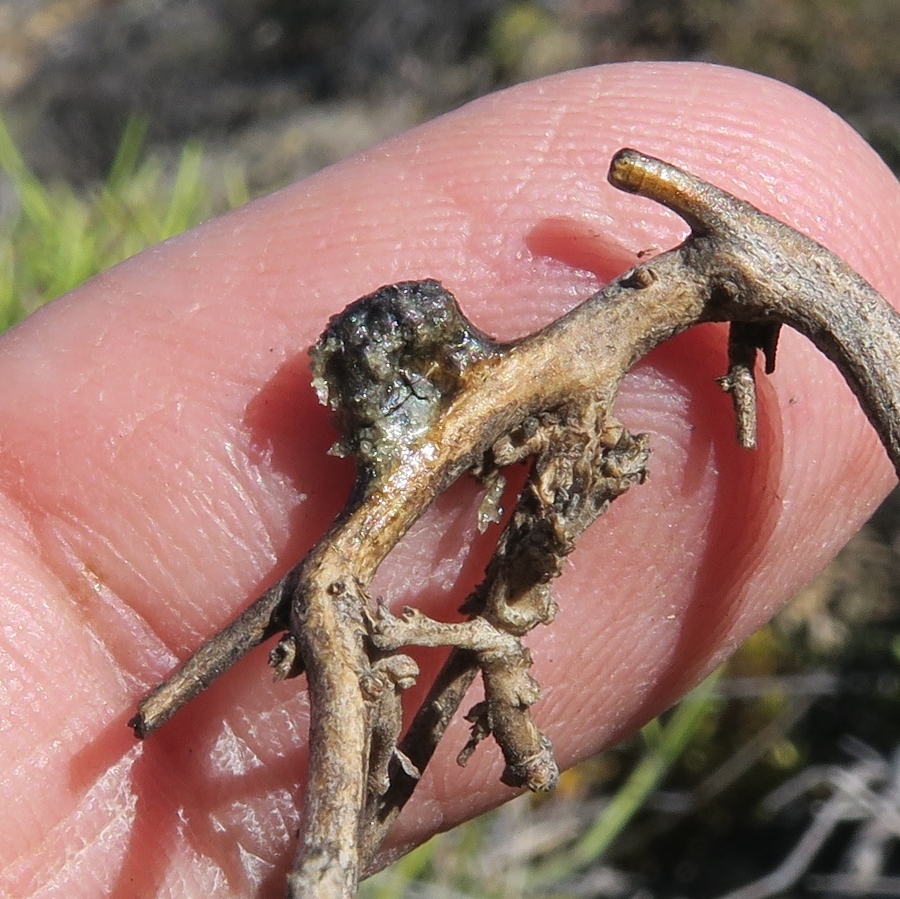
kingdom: Animalia
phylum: Chordata
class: Mammalia
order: Artiodactyla
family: Bovidae
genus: Oreotragus
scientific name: Oreotragus oreotragus
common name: Klipspringer
